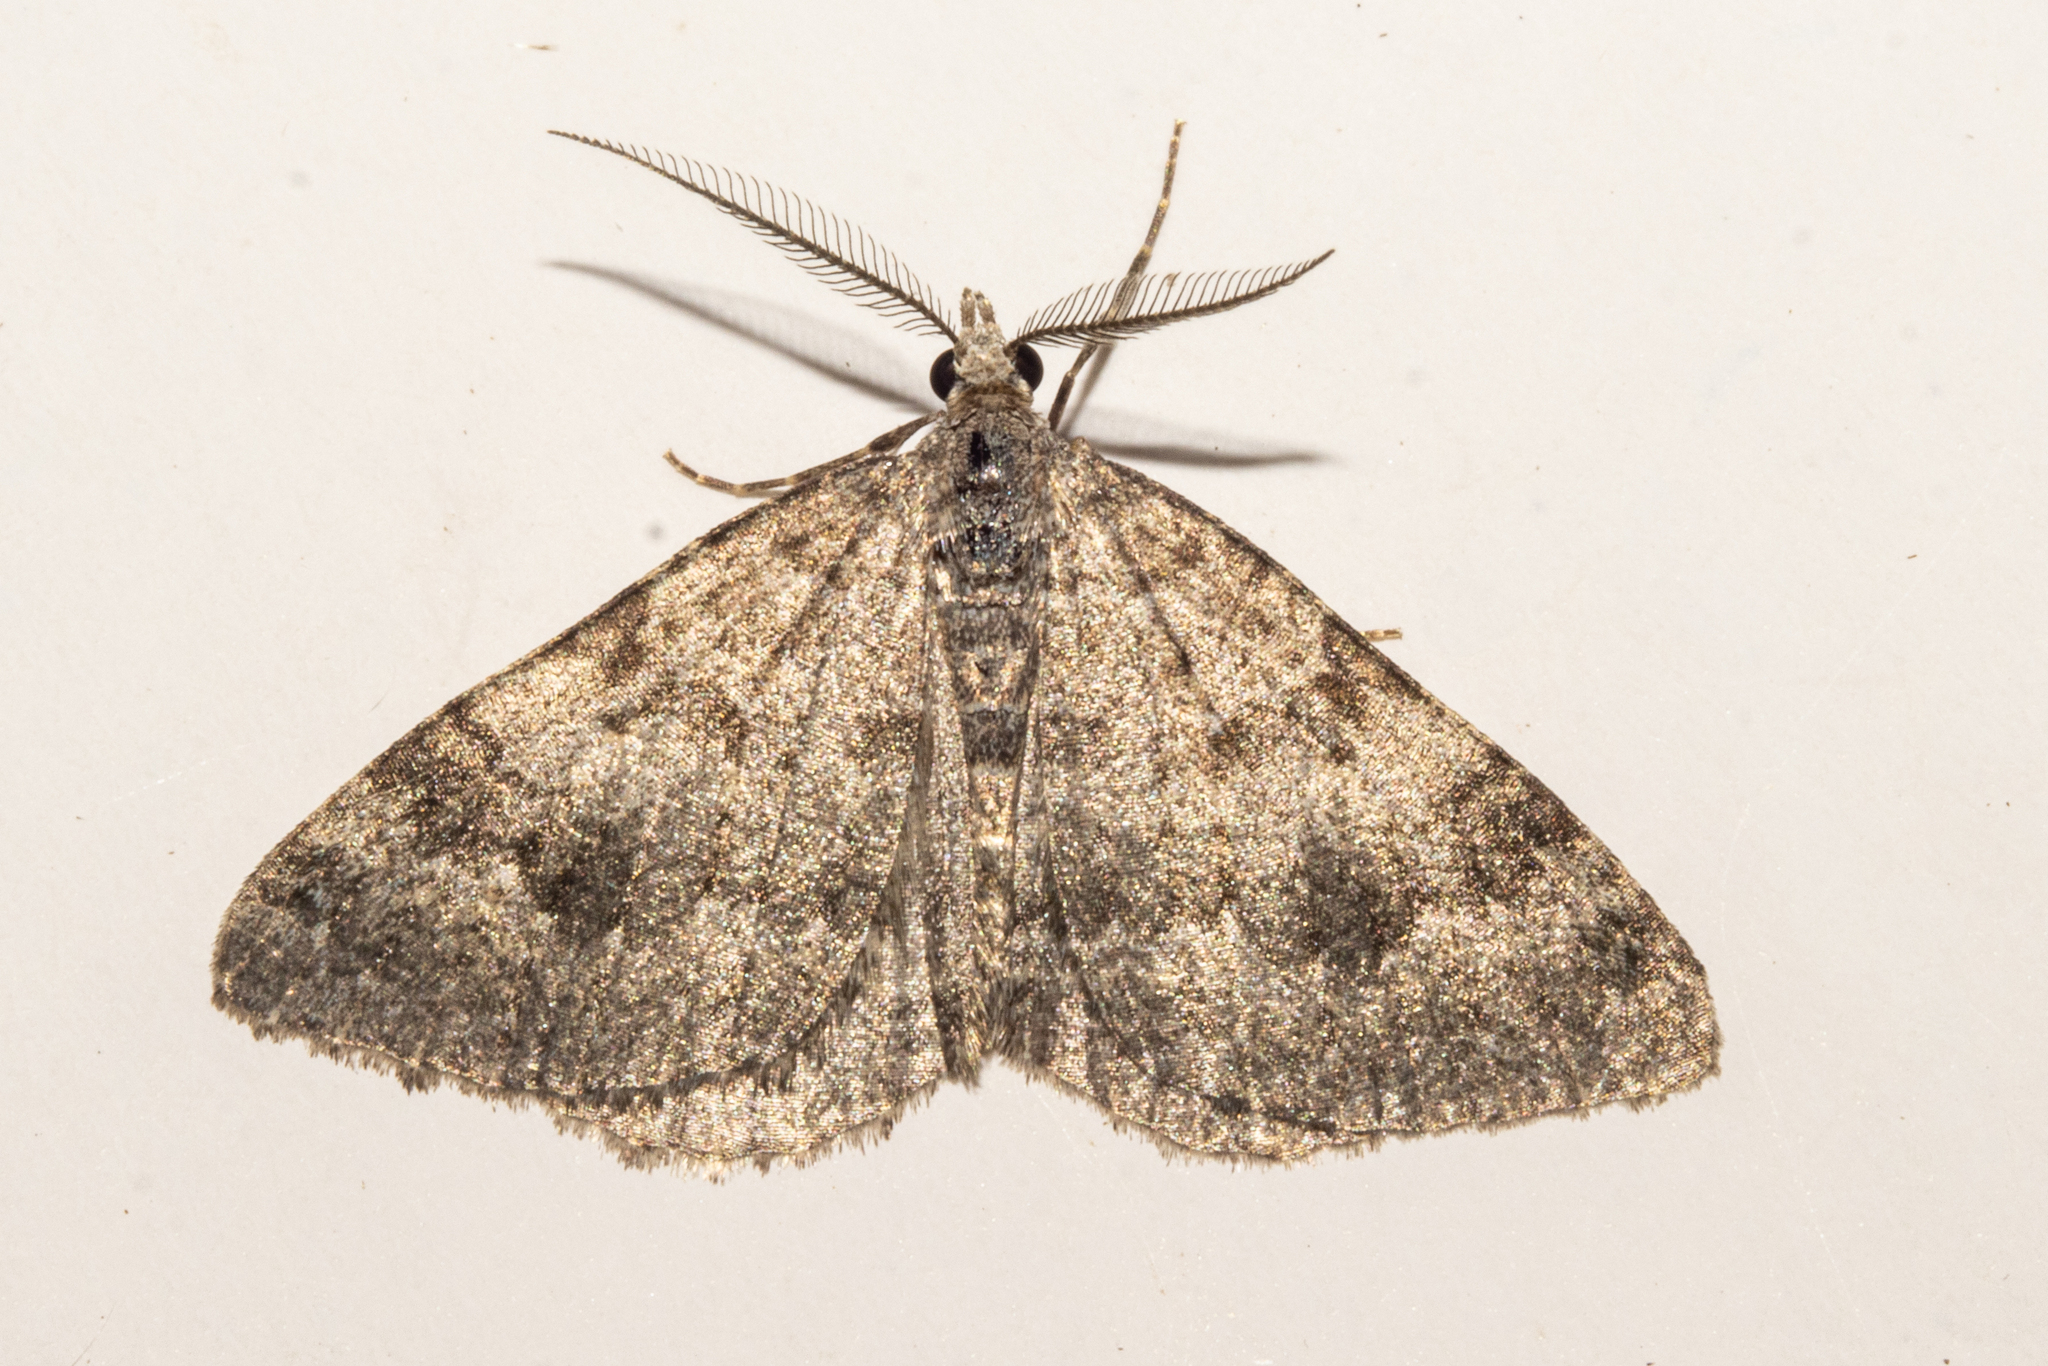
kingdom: Animalia
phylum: Arthropoda
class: Insecta
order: Lepidoptera
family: Geometridae
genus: Helastia
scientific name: Helastia corcularia
